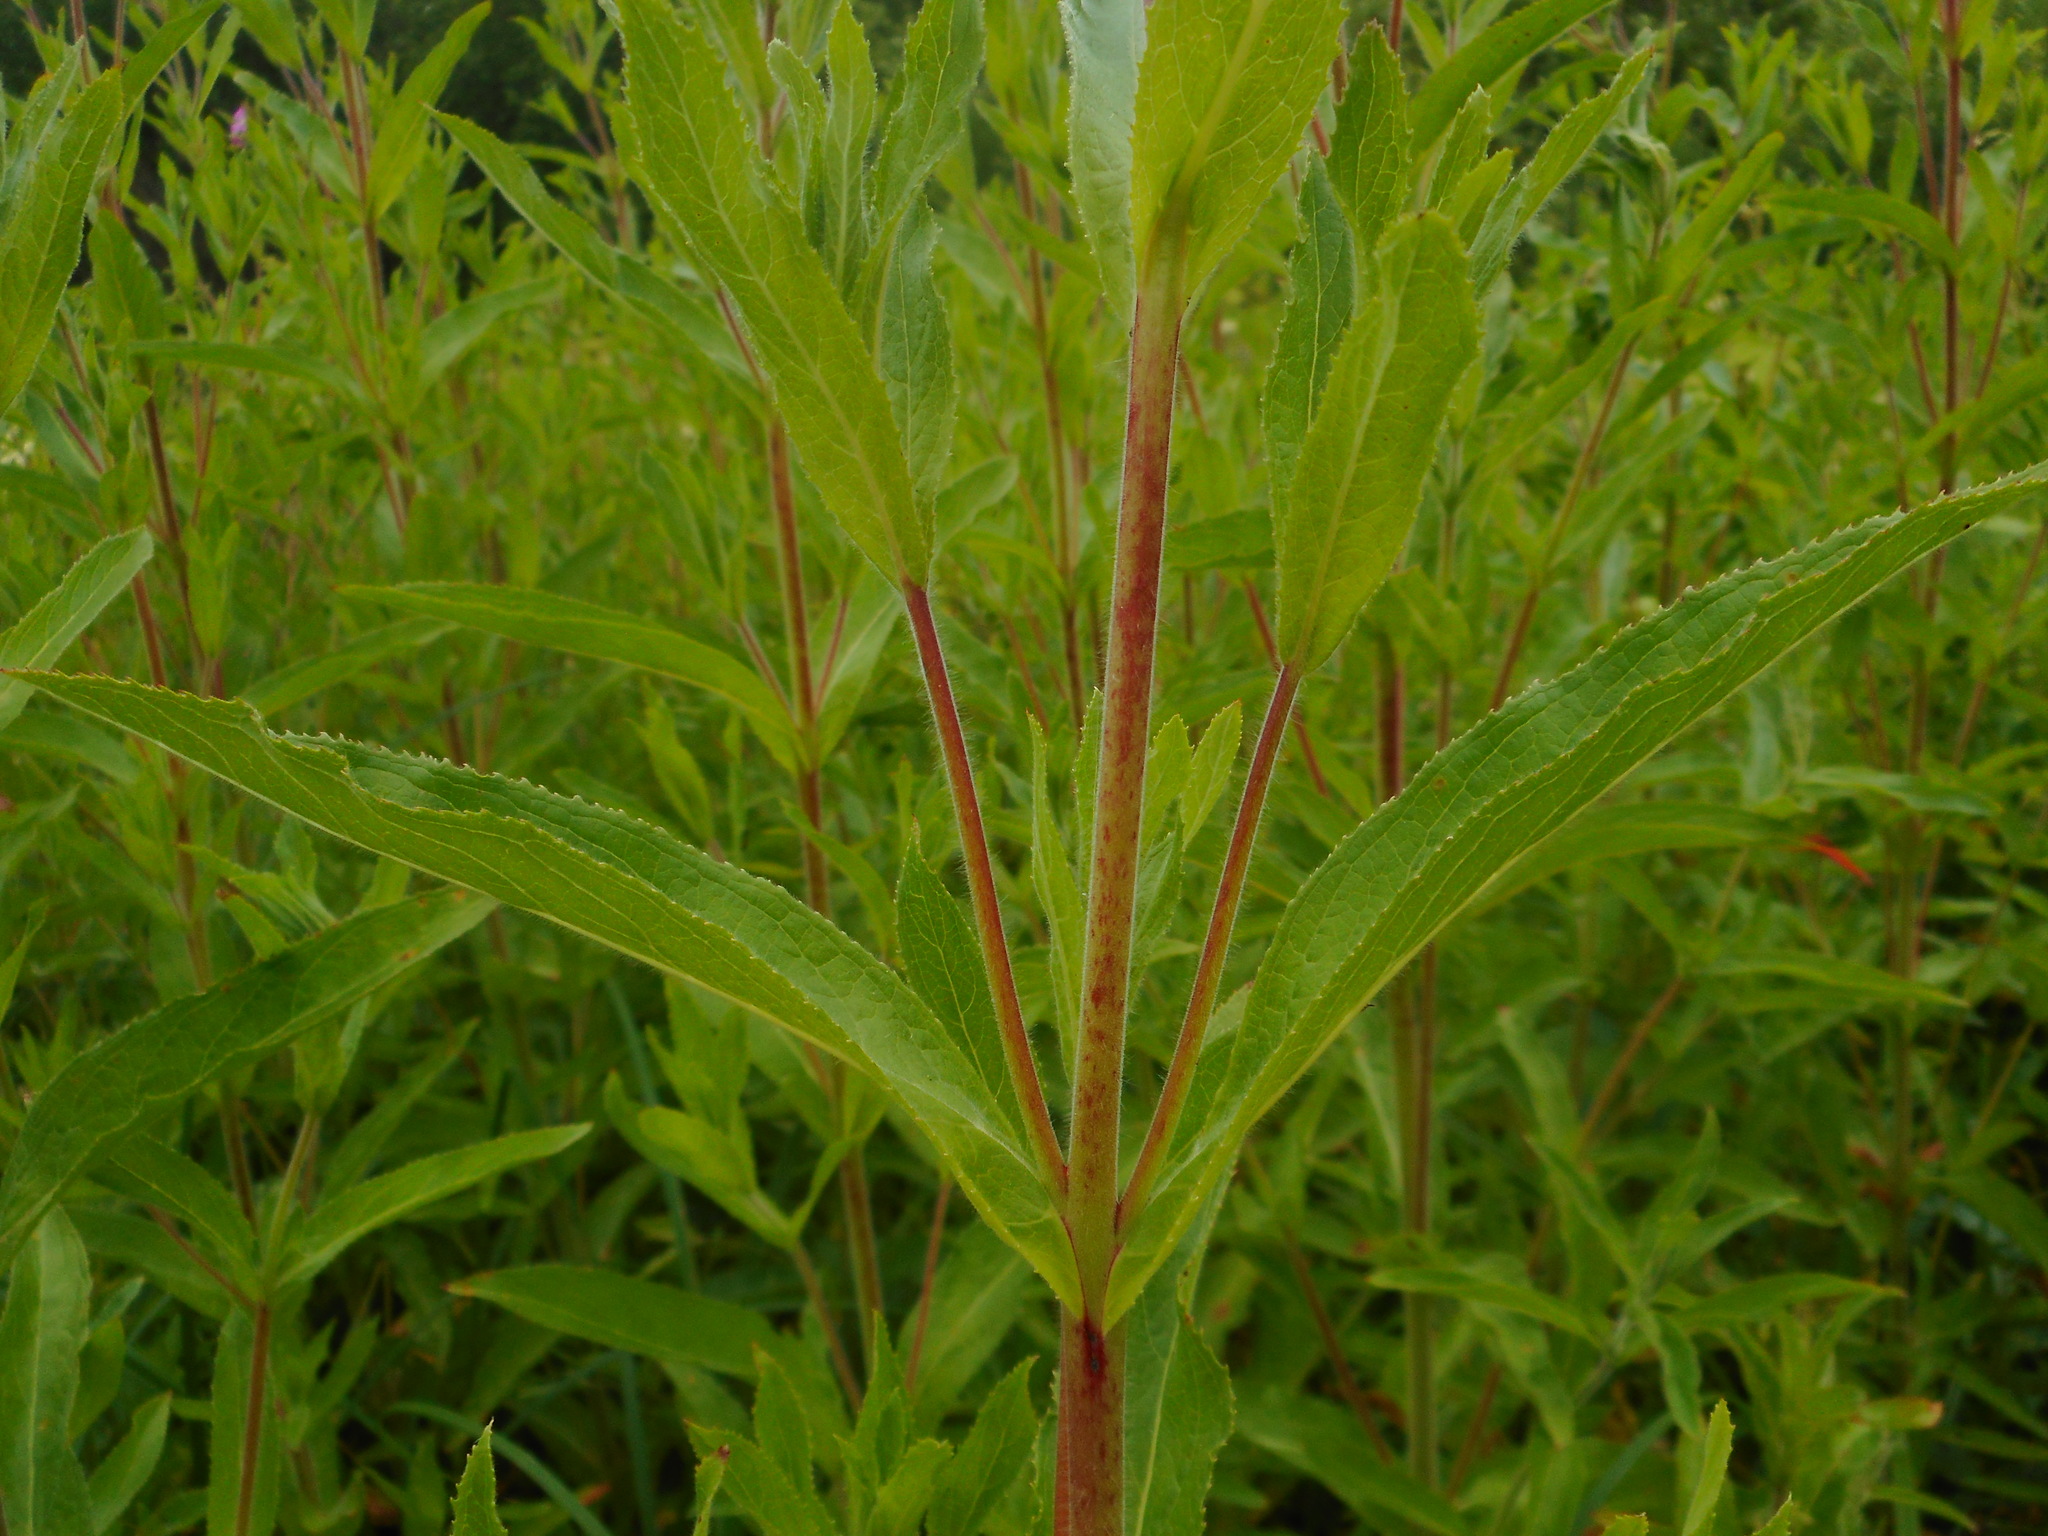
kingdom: Plantae
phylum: Tracheophyta
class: Magnoliopsida
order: Myrtales
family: Onagraceae
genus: Epilobium
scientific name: Epilobium hirsutum
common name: Great willowherb
